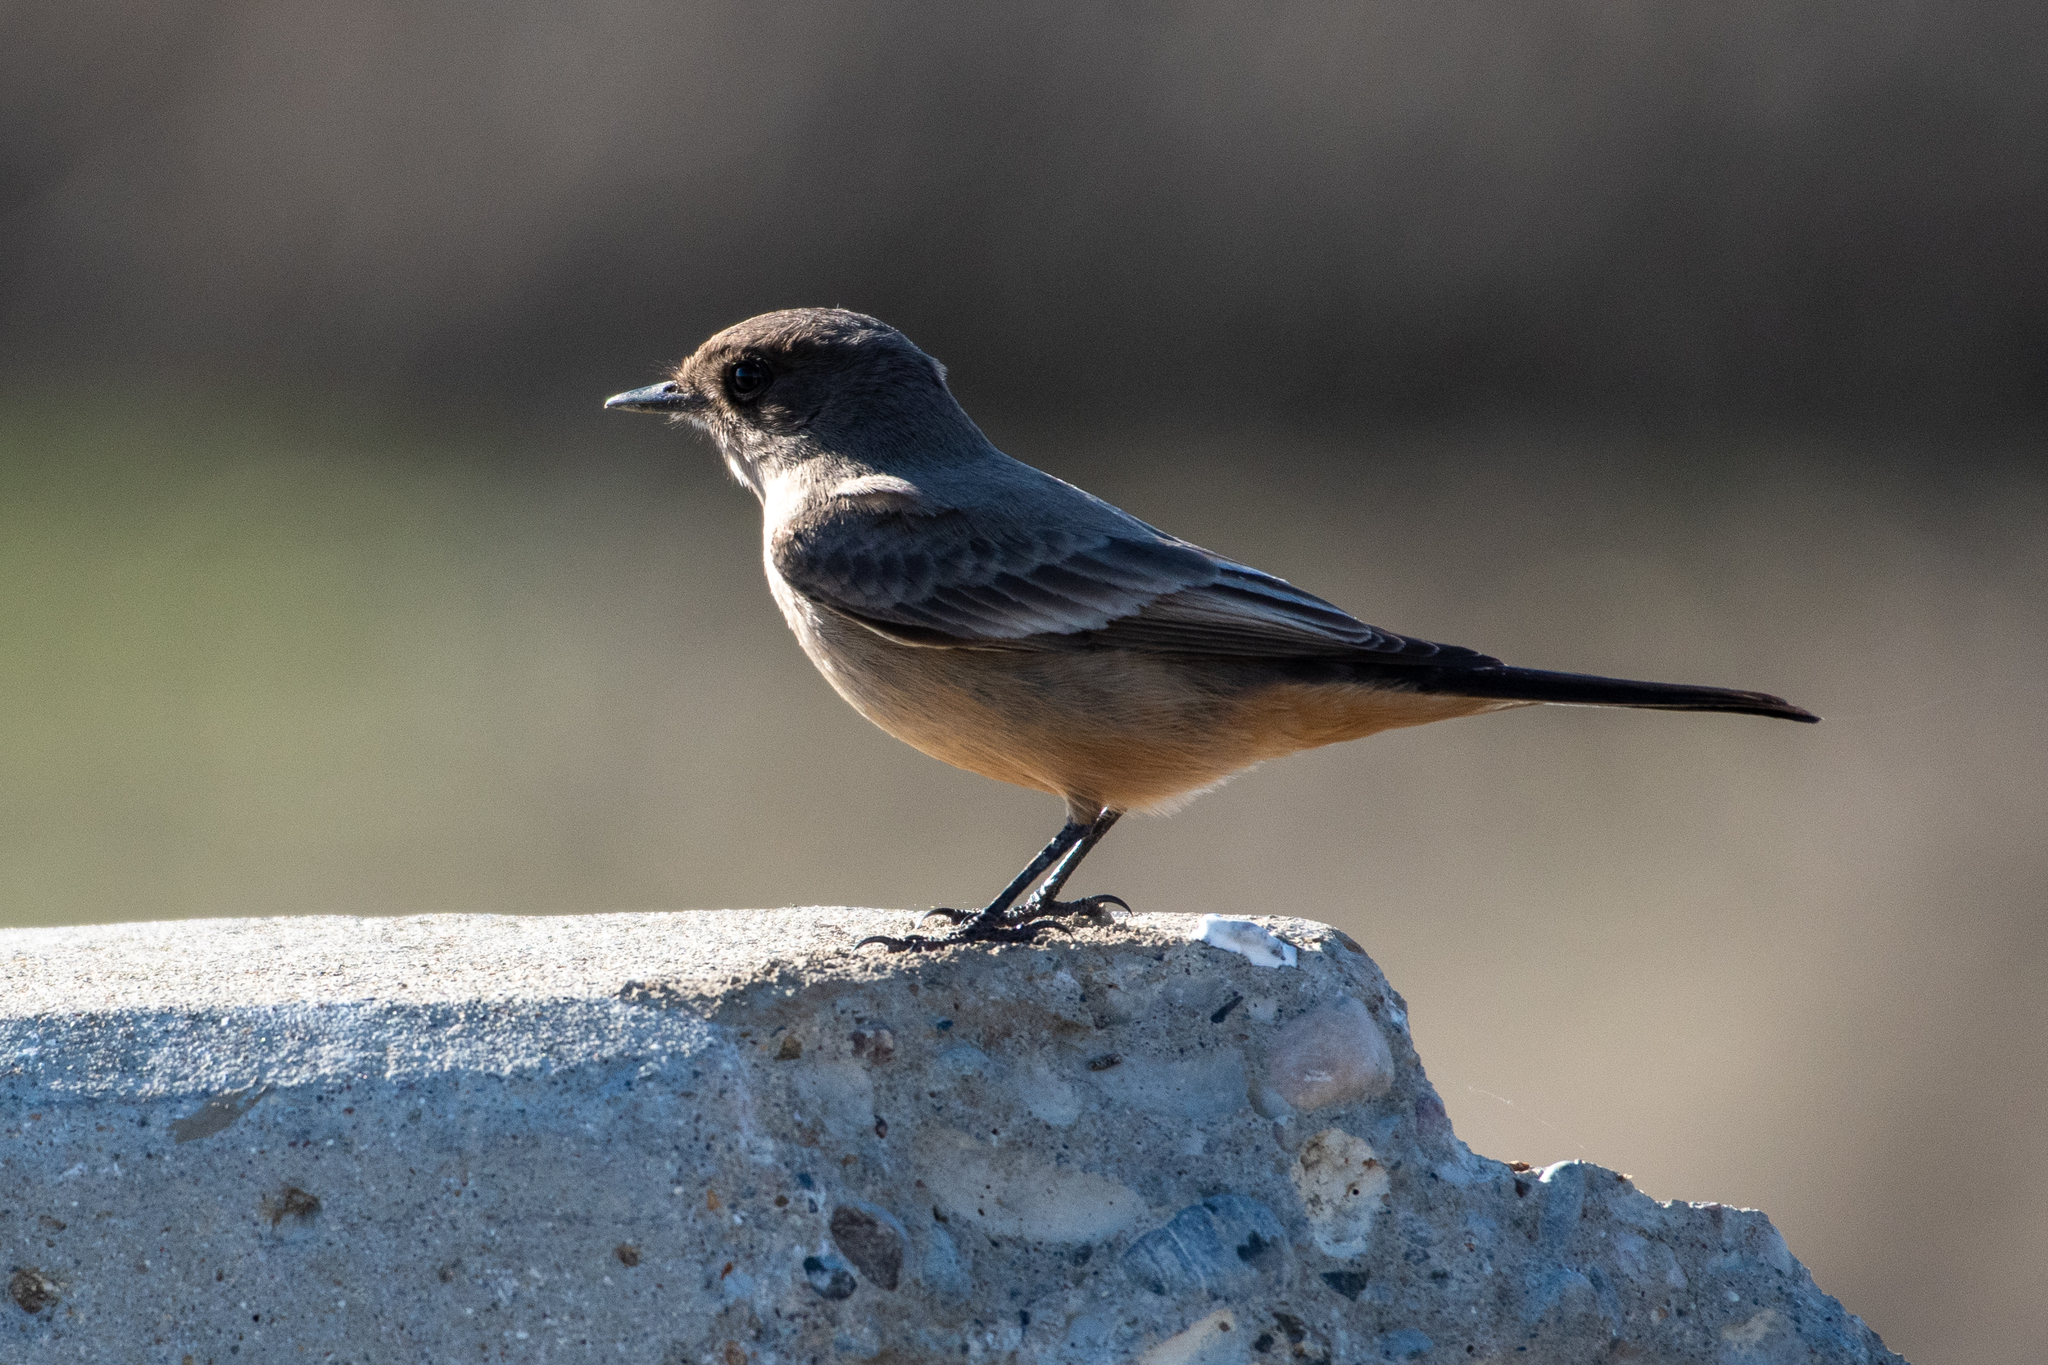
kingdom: Animalia
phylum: Chordata
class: Aves
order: Passeriformes
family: Tyrannidae
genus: Sayornis
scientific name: Sayornis saya
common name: Say's phoebe
